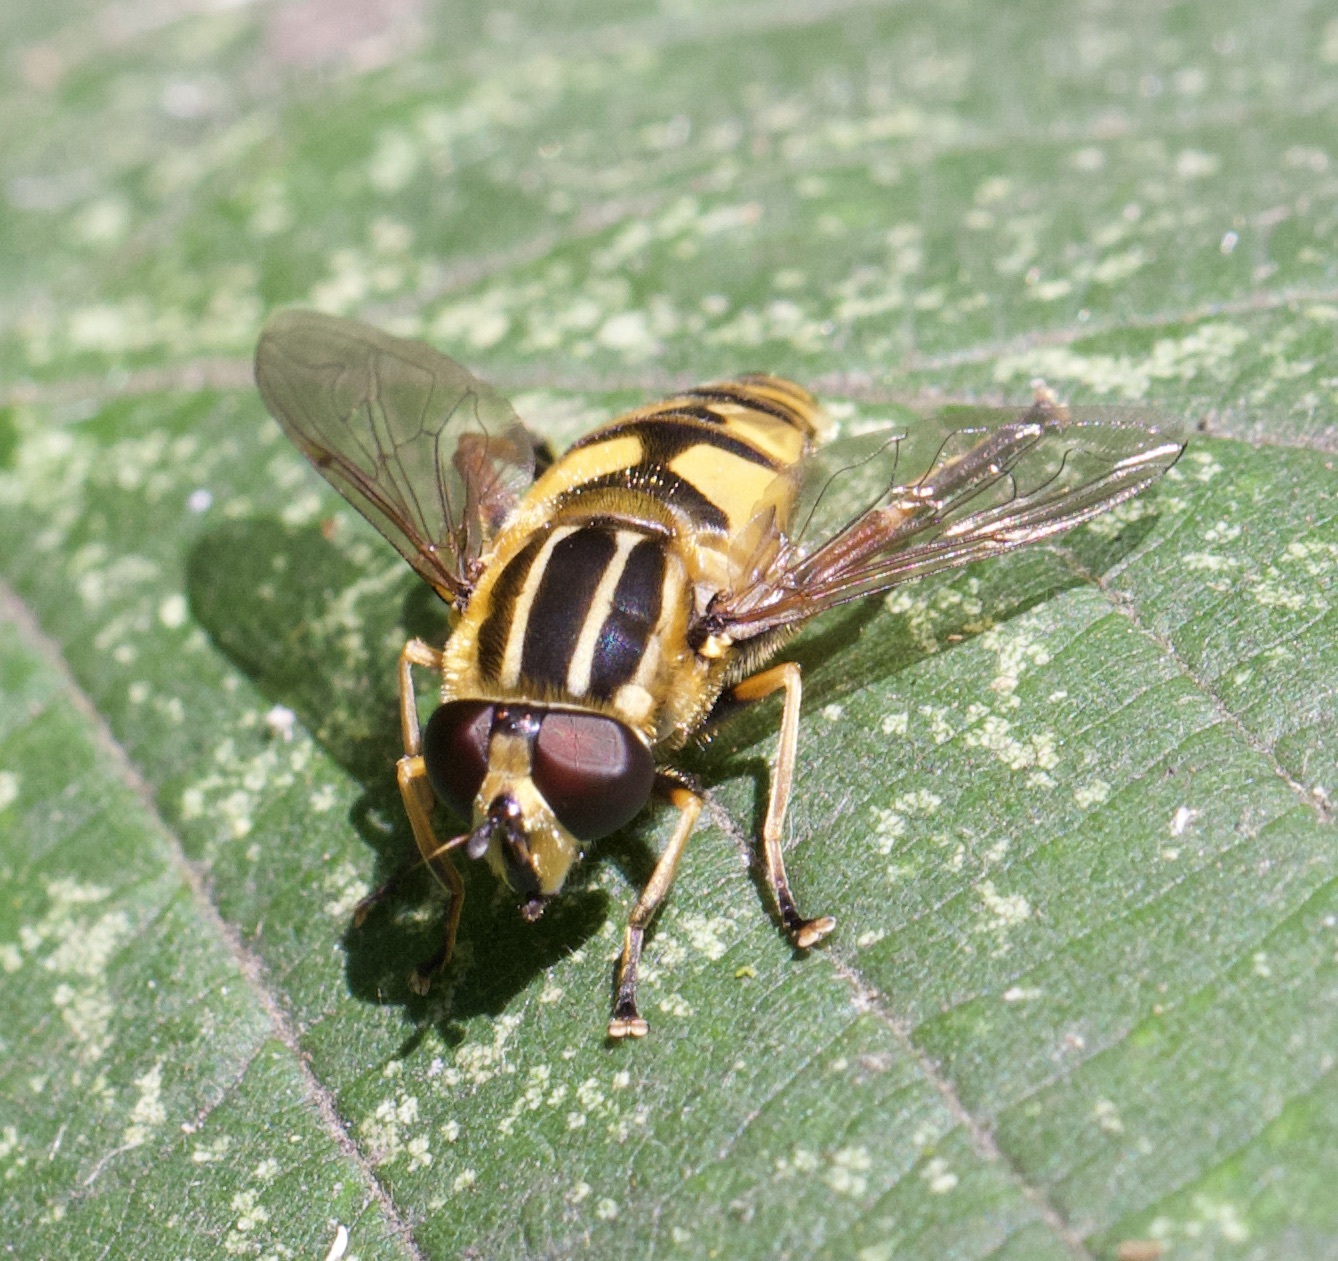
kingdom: Animalia
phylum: Arthropoda
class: Insecta
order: Diptera
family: Syrphidae
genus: Helophilus
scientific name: Helophilus pendulus
